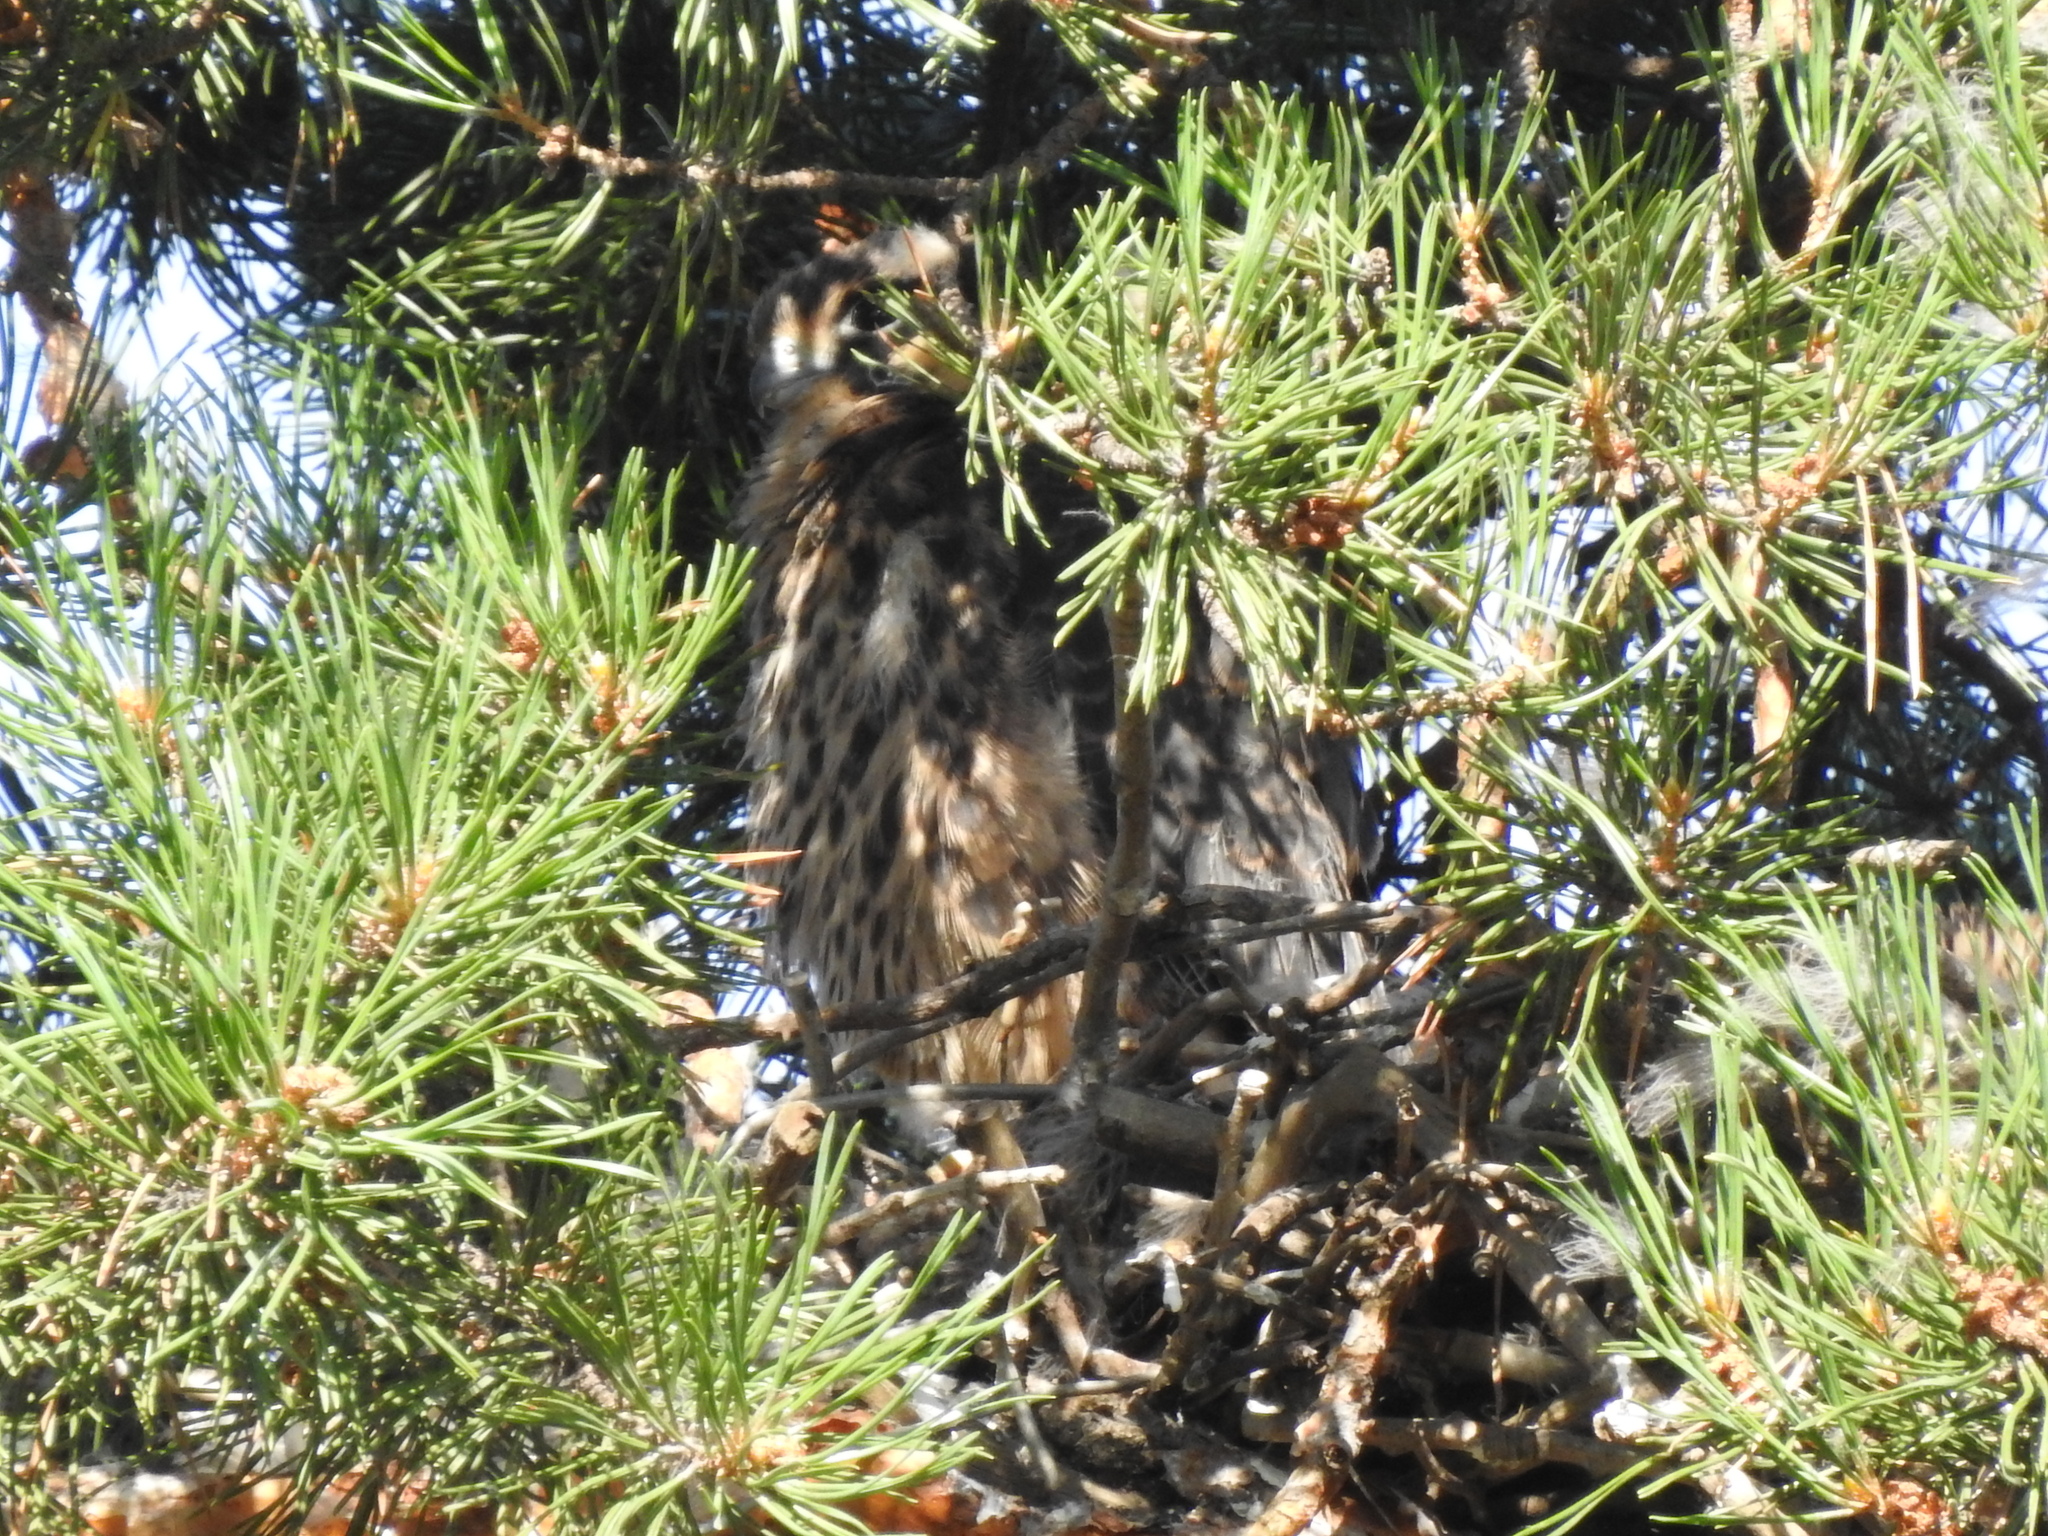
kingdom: Animalia
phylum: Chordata
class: Aves
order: Falconiformes
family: Falconidae
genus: Falco
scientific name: Falco subbuteo
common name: Eurasian hobby
